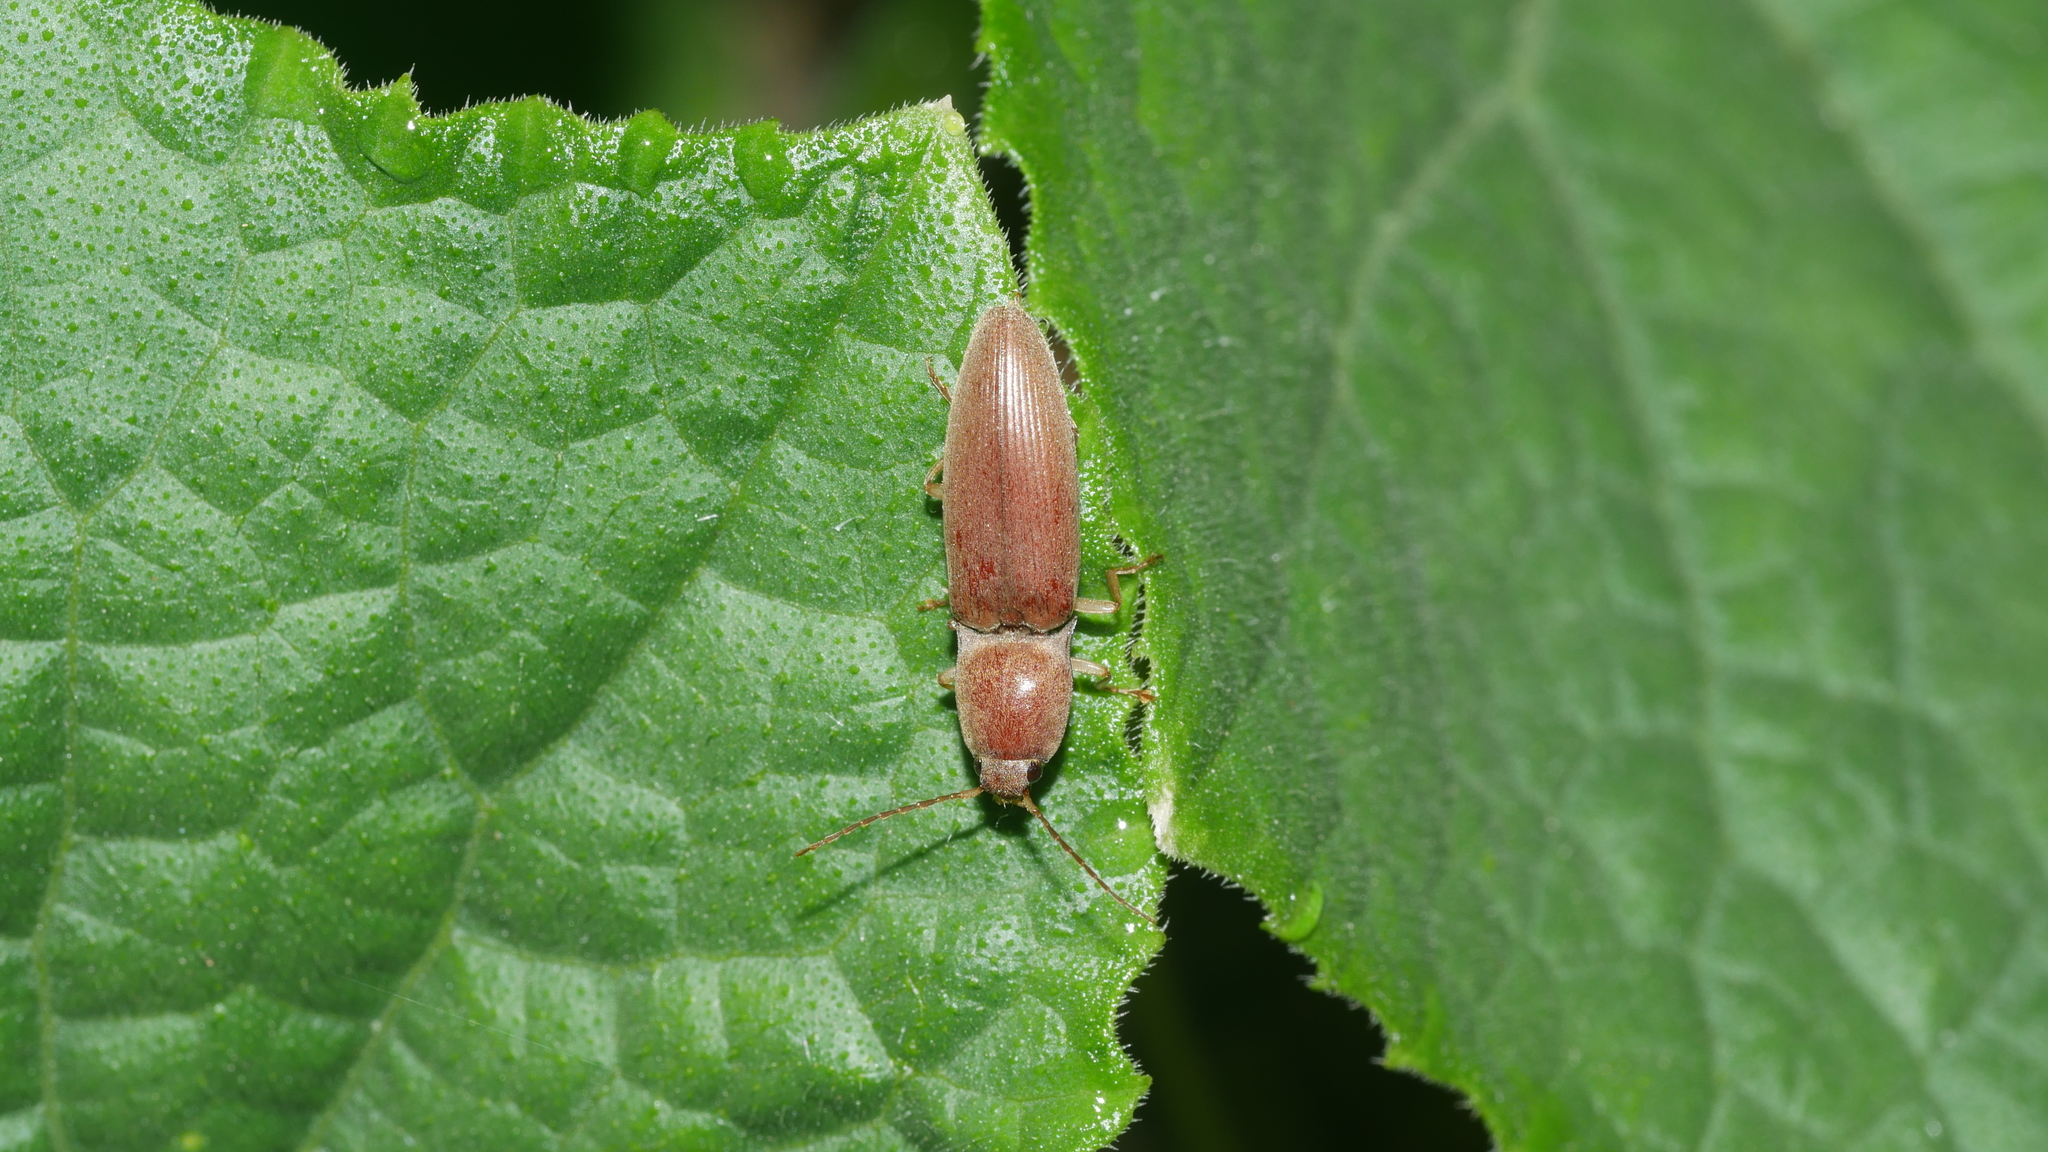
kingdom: Animalia
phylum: Arthropoda
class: Insecta
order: Coleoptera
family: Elateridae
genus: Monocrepidius
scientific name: Monocrepidius lividus
